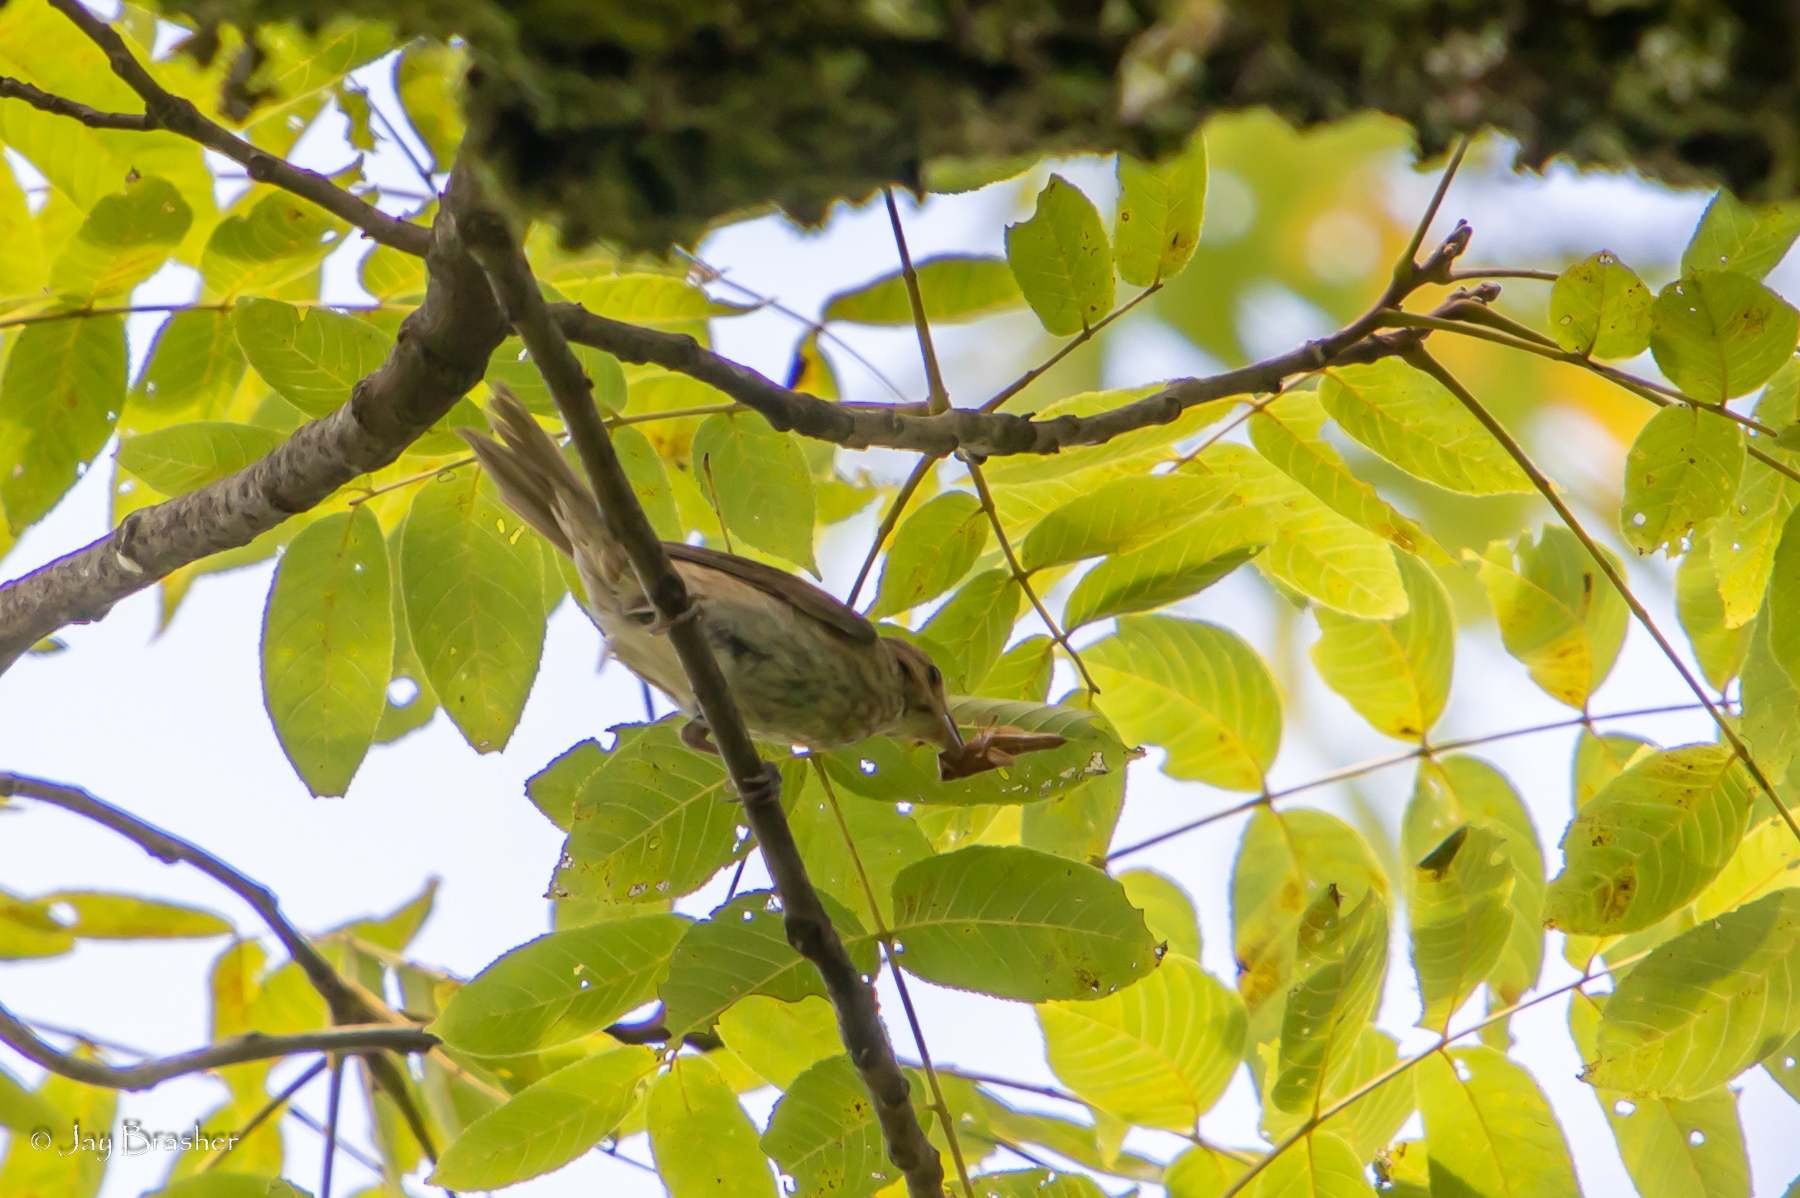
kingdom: Animalia
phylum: Chordata
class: Aves
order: Passeriformes
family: Cardinalidae
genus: Passerina
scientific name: Passerina cyanea
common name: Indigo bunting
